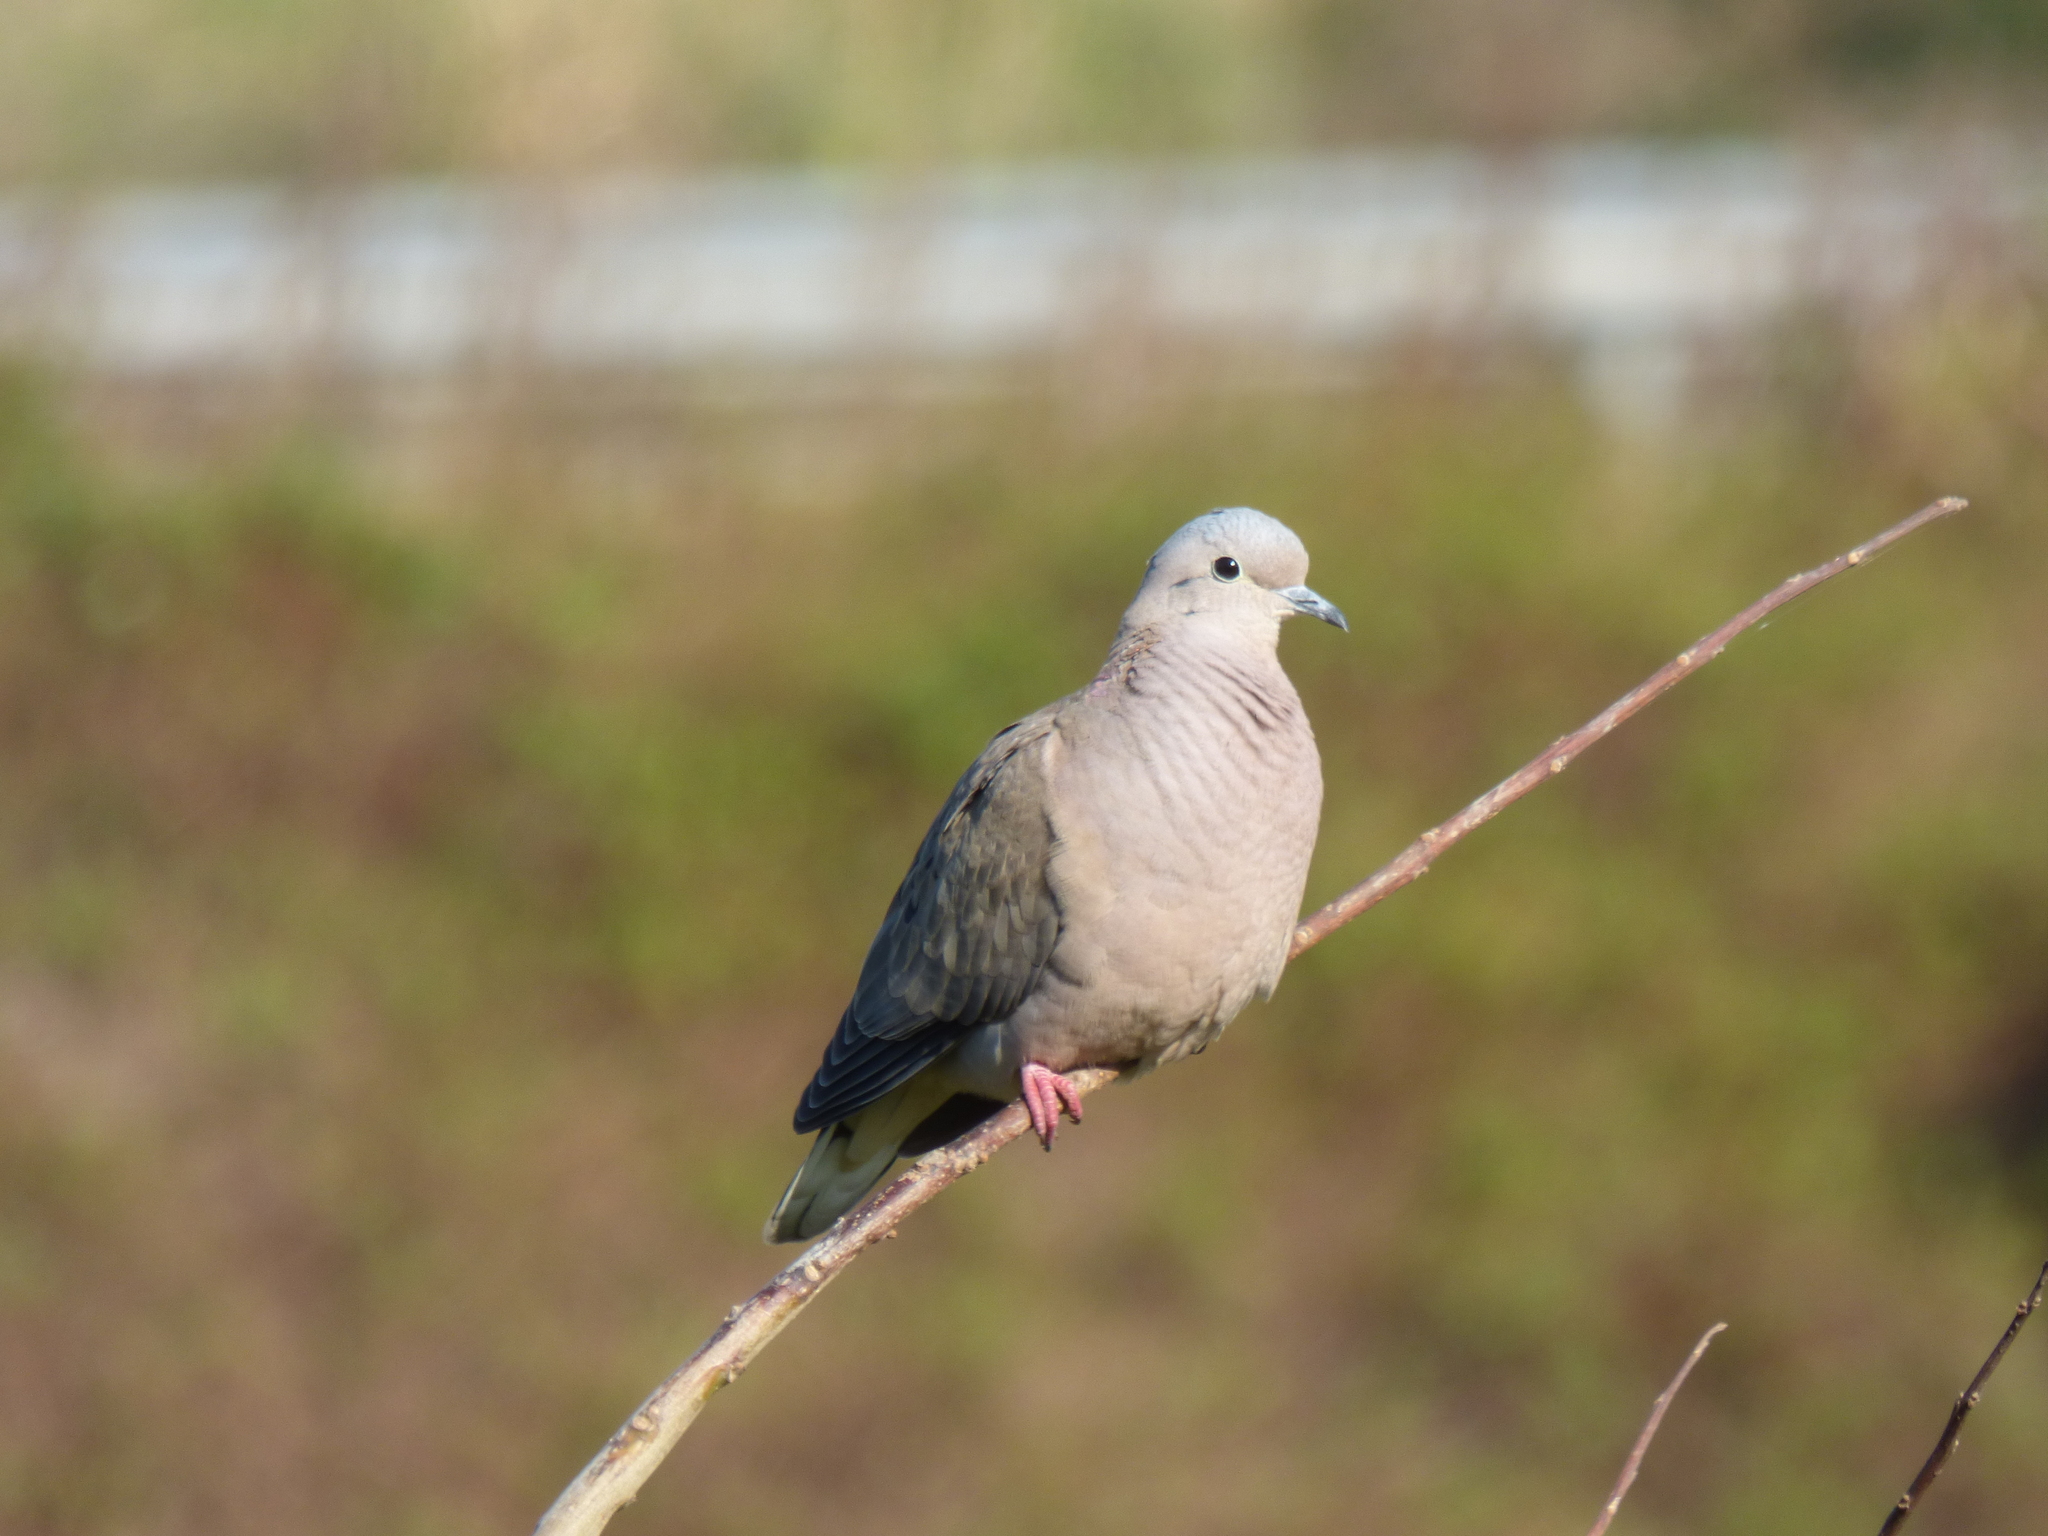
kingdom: Animalia
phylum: Chordata
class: Aves
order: Columbiformes
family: Columbidae
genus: Zenaida
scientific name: Zenaida auriculata
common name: Eared dove
